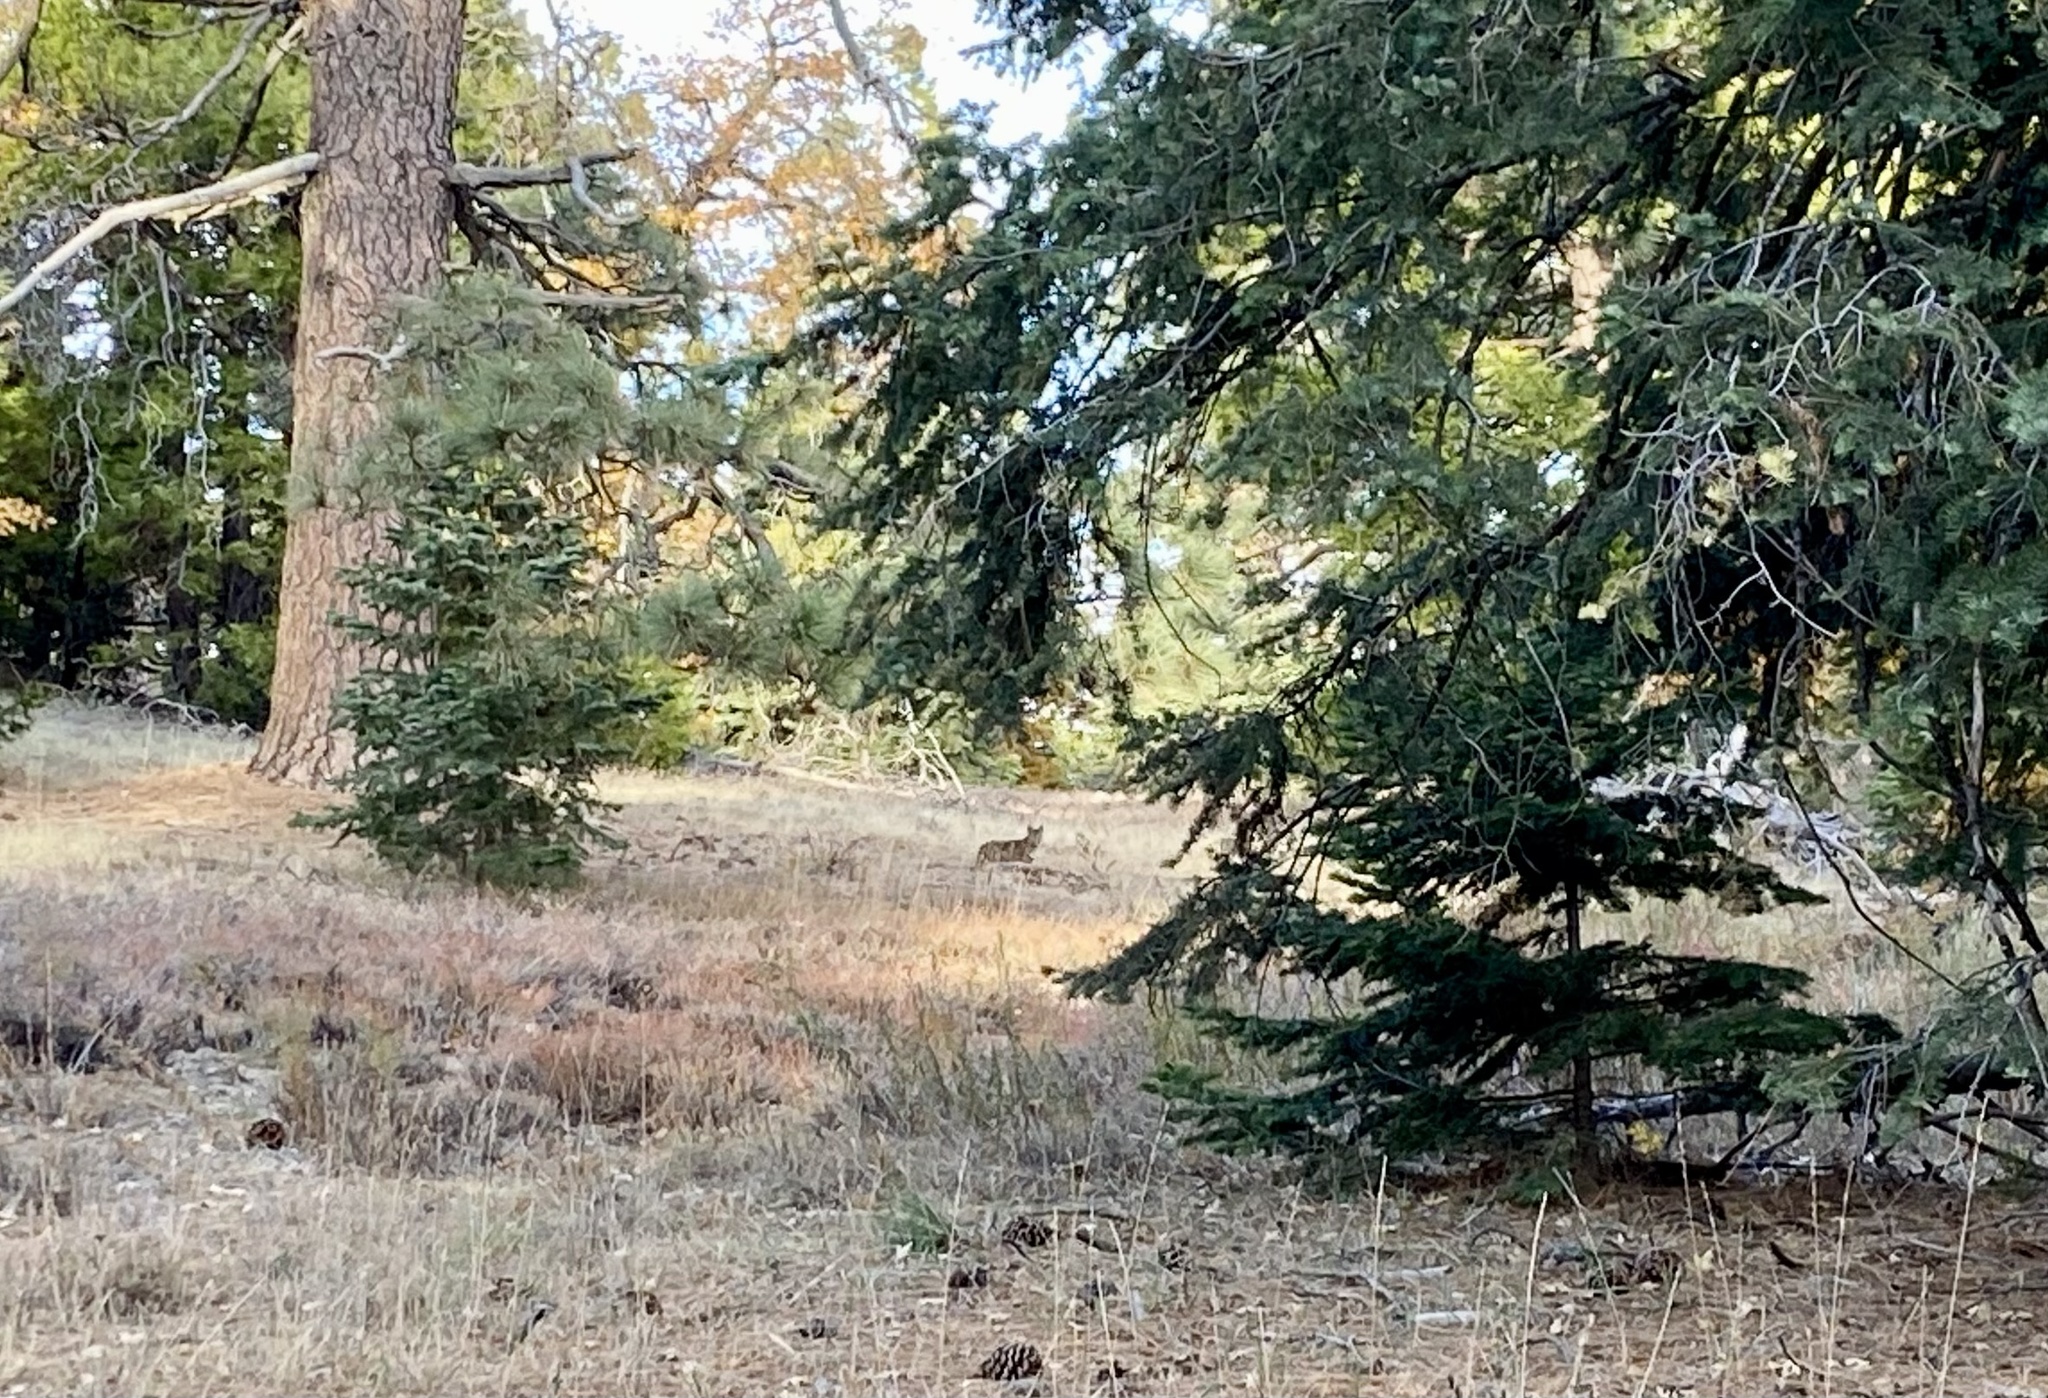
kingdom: Animalia
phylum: Chordata
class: Mammalia
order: Carnivora
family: Felidae
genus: Lynx
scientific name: Lynx rufus
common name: Bobcat
